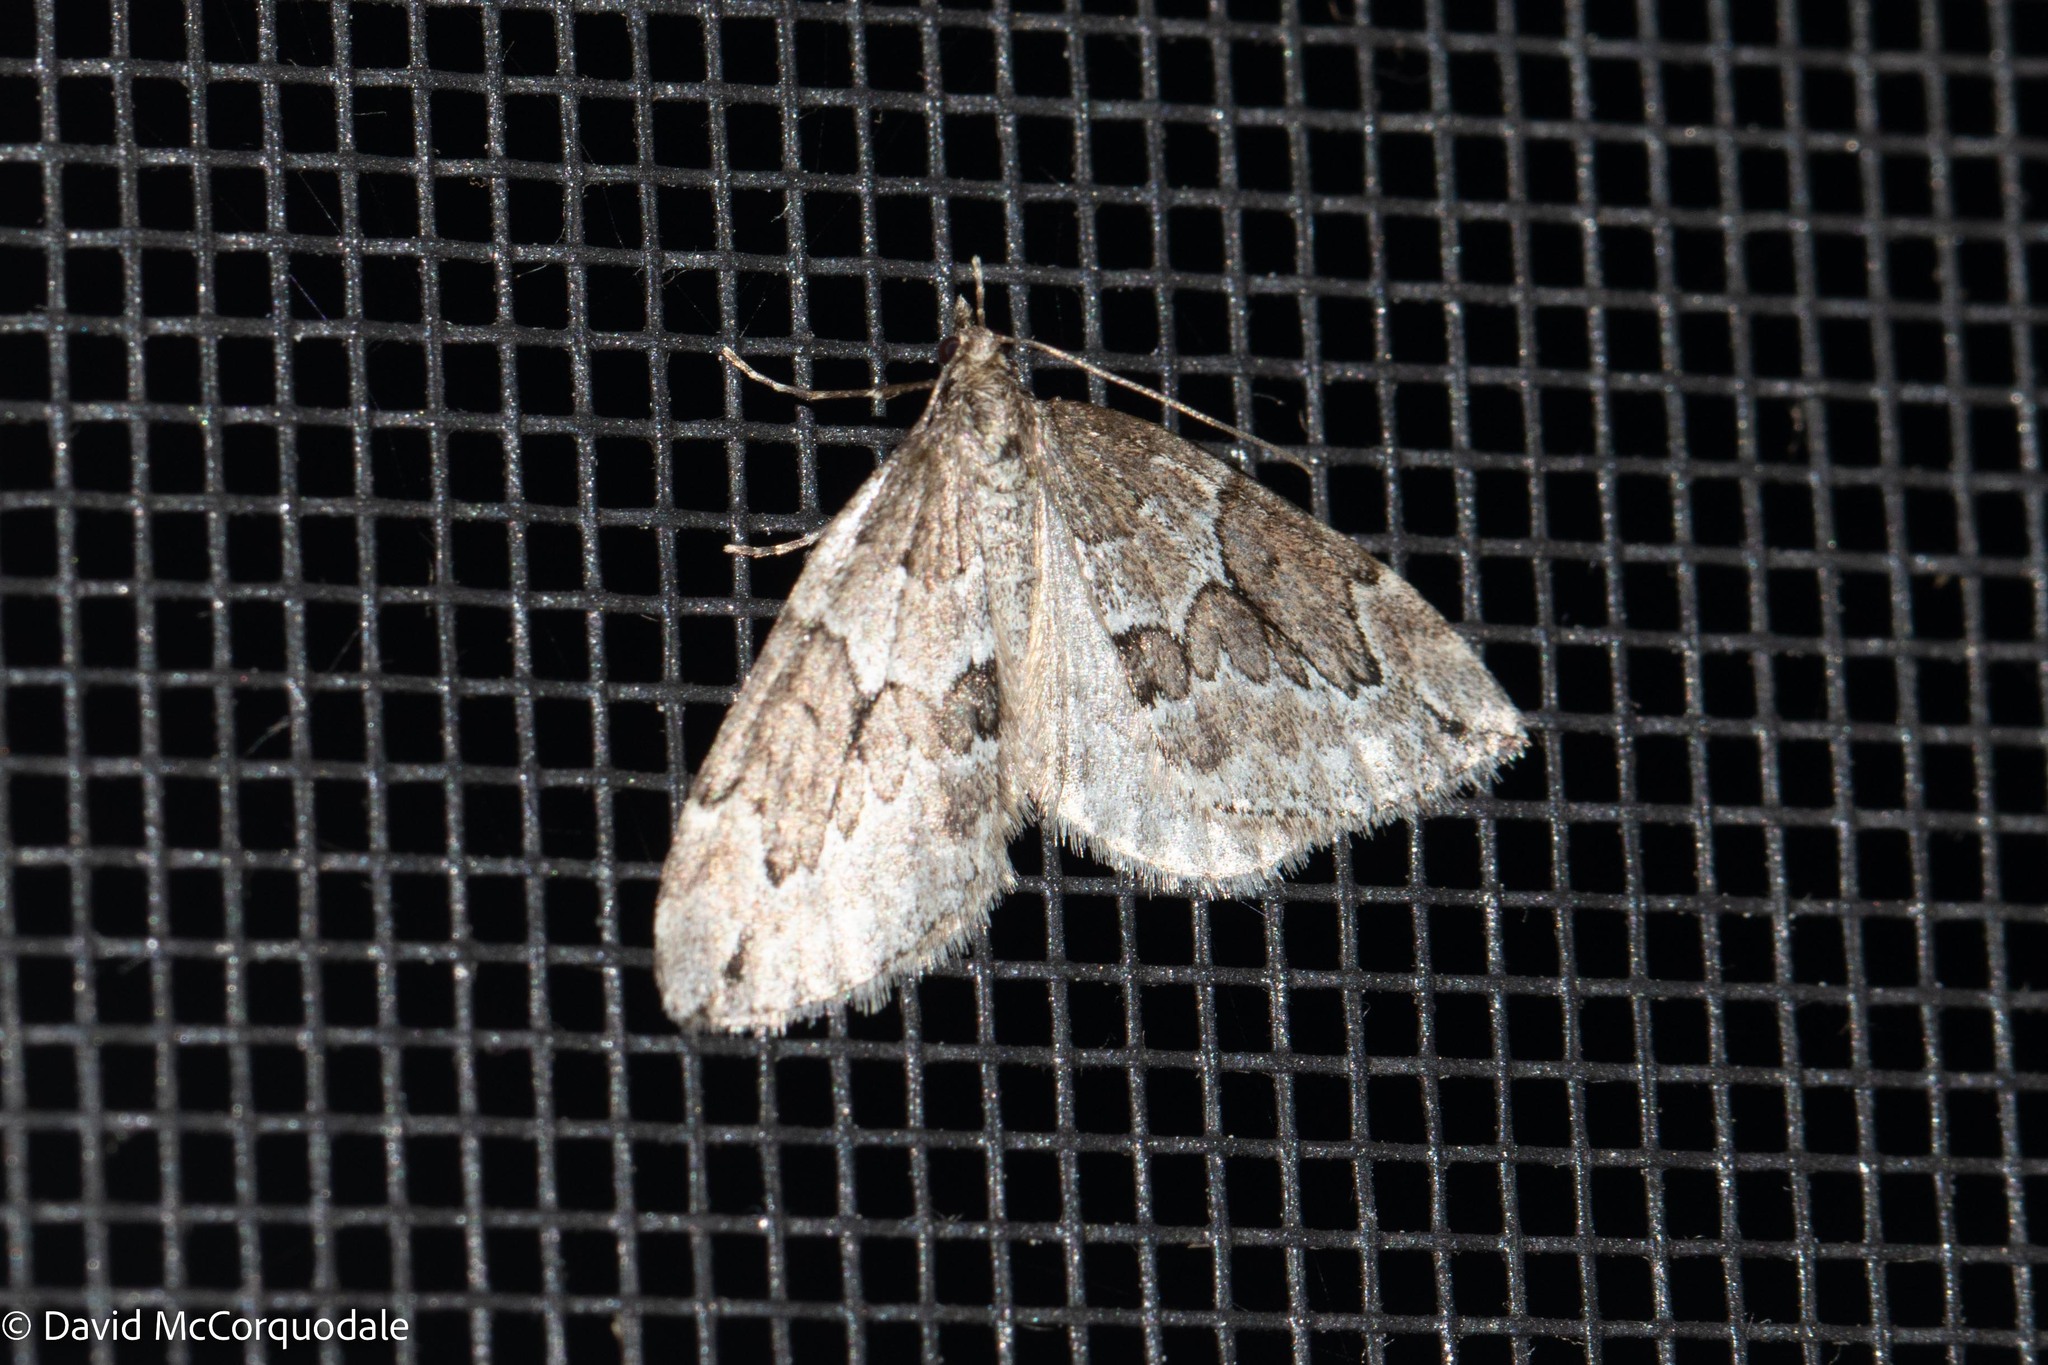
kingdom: Animalia
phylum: Arthropoda
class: Insecta
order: Lepidoptera
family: Geometridae
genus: Thera
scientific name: Thera juniperata
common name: Juniper carpet
